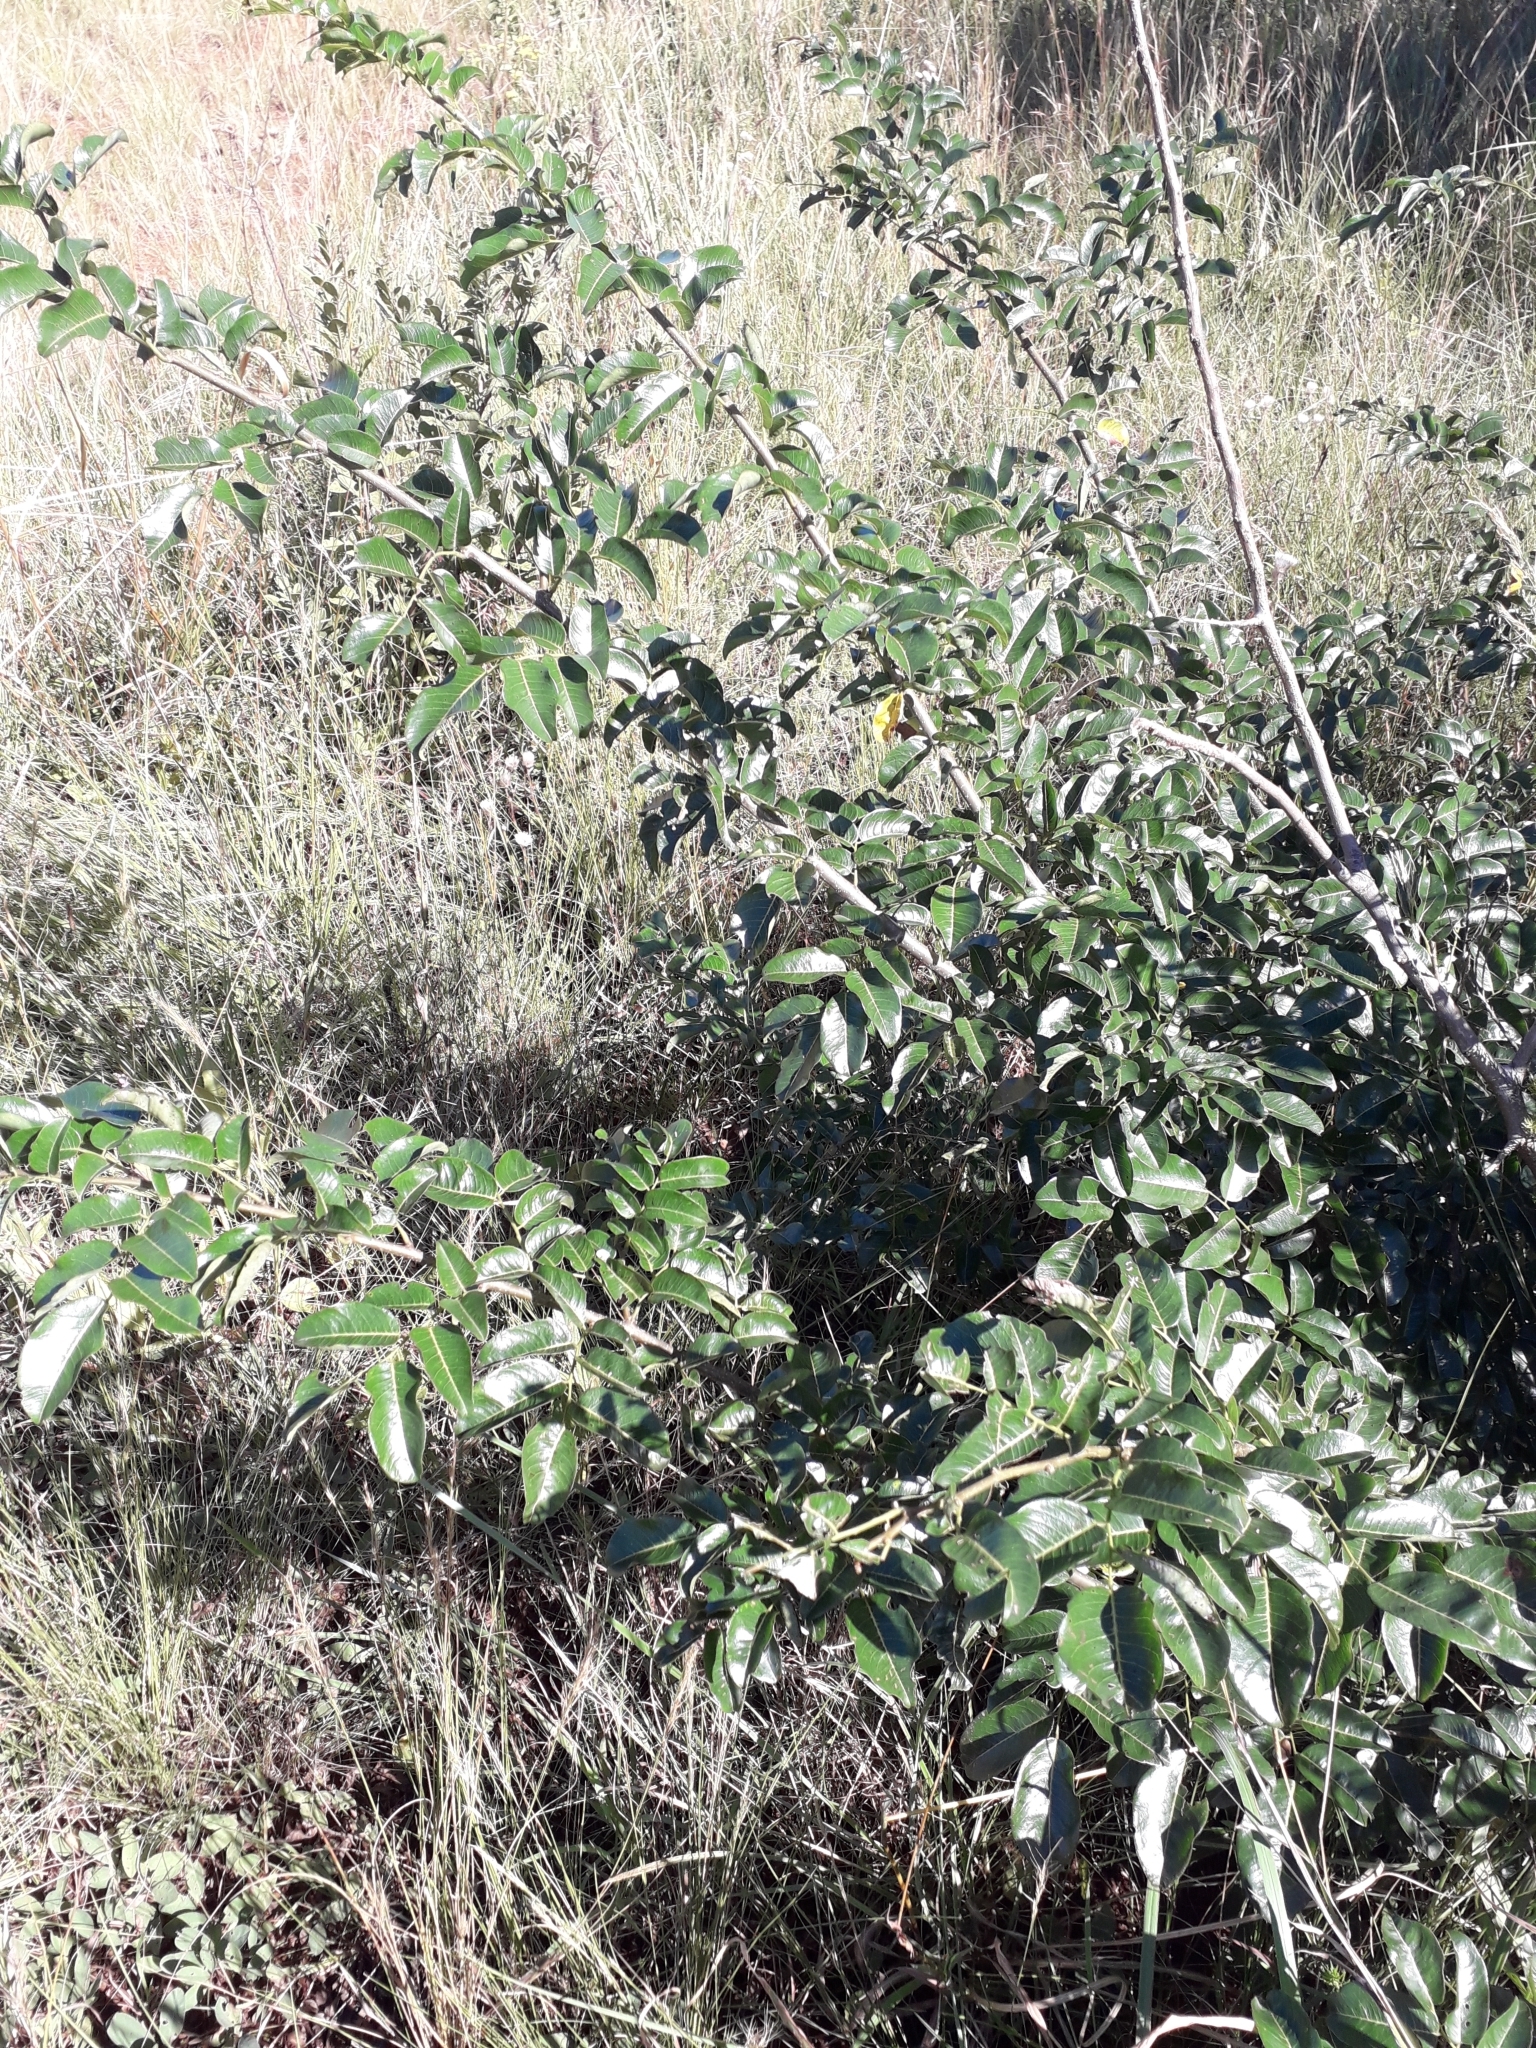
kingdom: Plantae
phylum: Tracheophyta
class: Magnoliopsida
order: Fabales
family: Fabaceae
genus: Dalbergia
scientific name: Dalbergia obovata
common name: Climbing flat-bean
